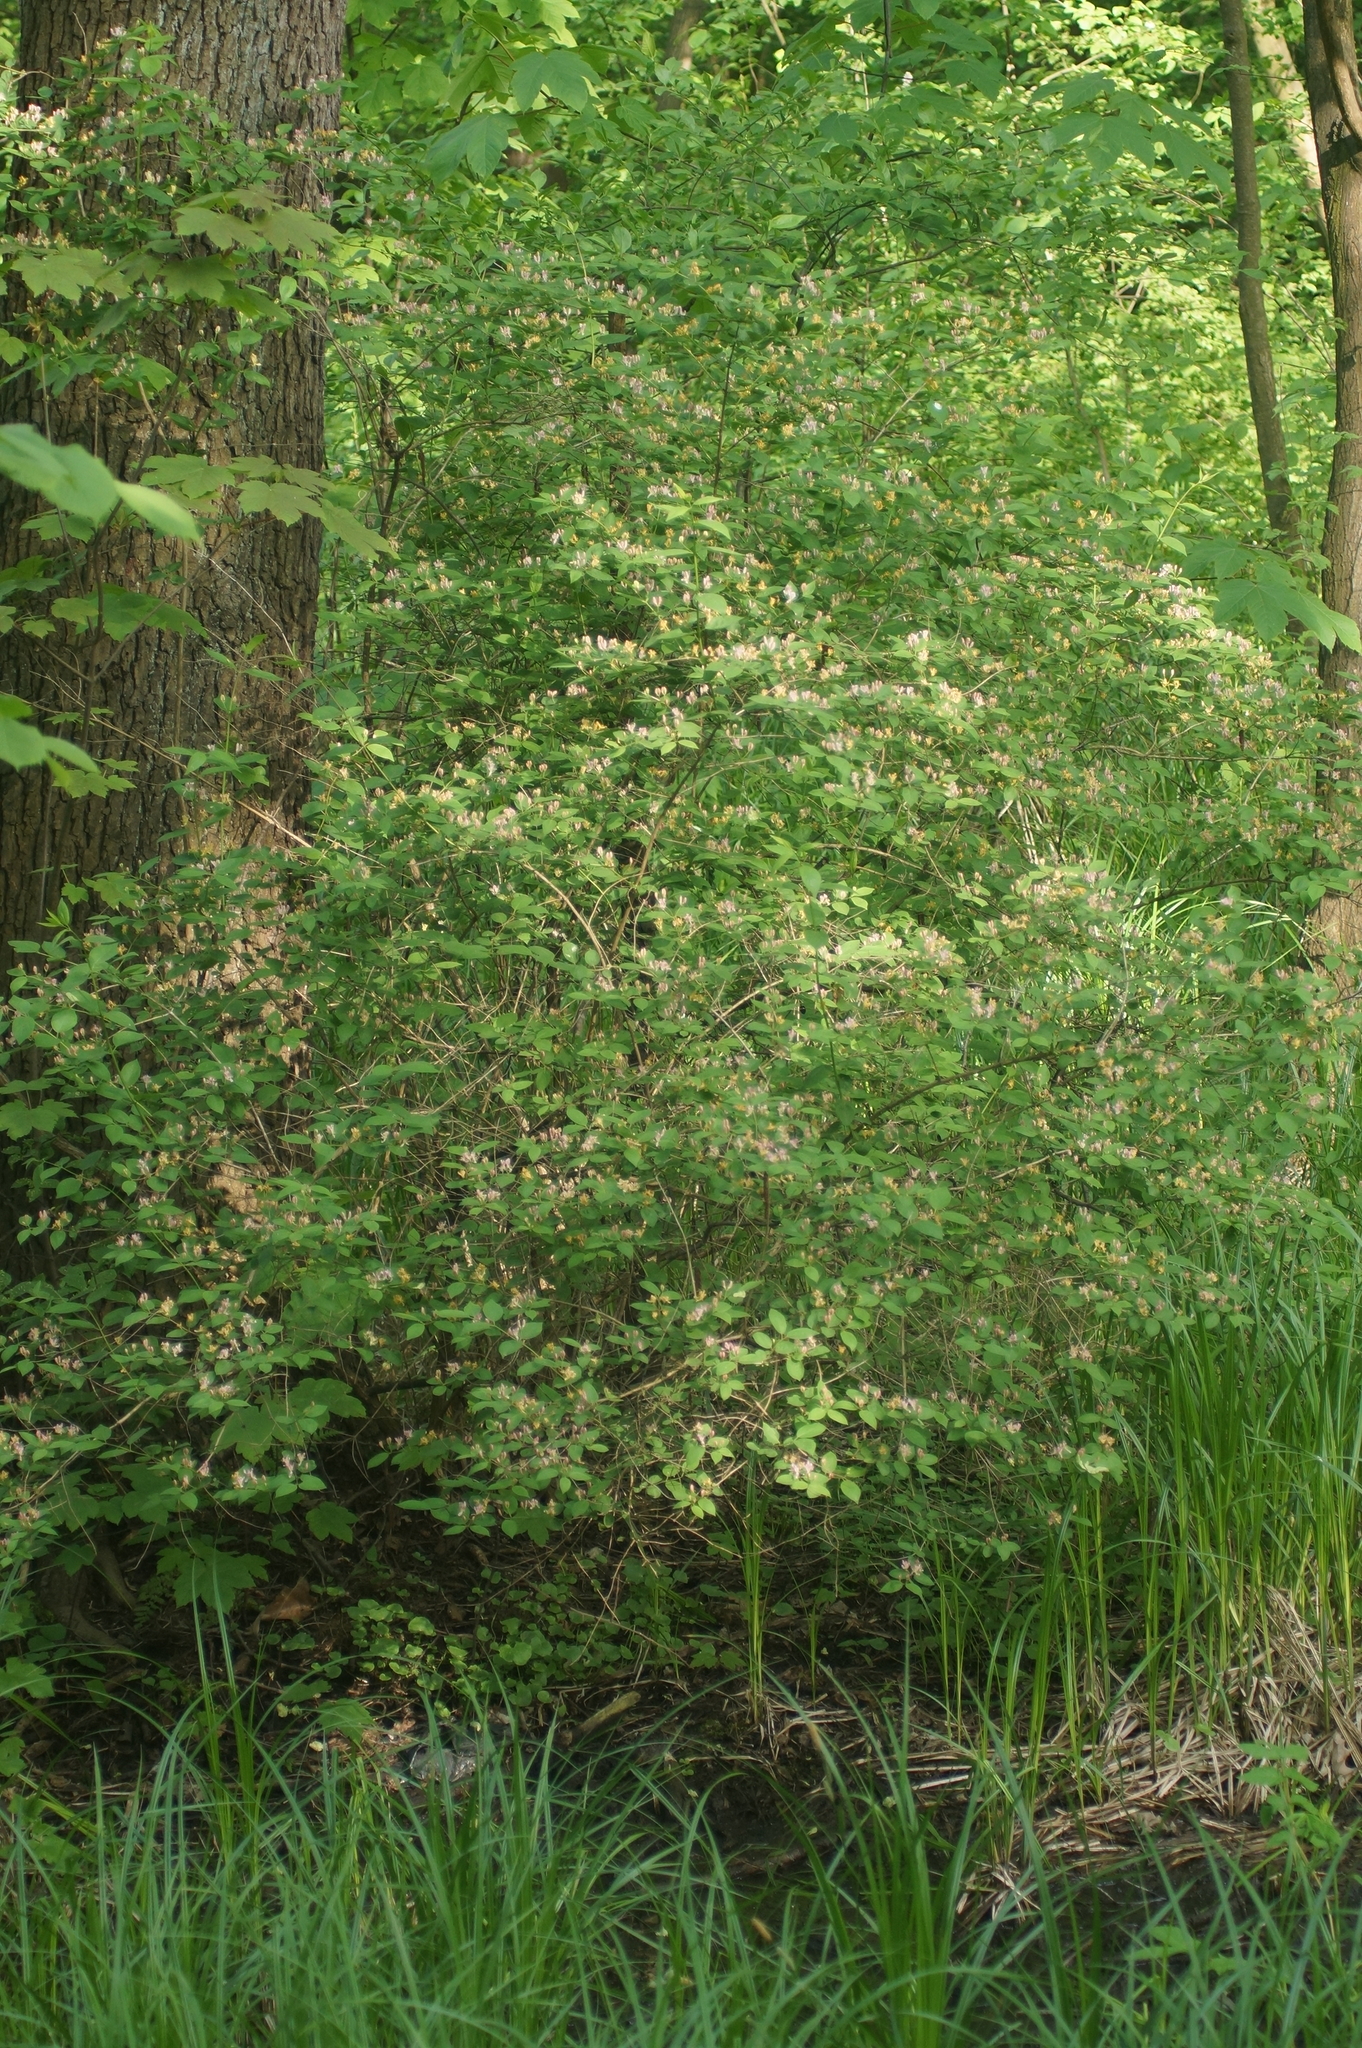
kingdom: Plantae
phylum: Tracheophyta
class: Magnoliopsida
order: Dipsacales
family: Caprifoliaceae
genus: Lonicera
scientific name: Lonicera tatarica
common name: Tatarian honeysuckle
